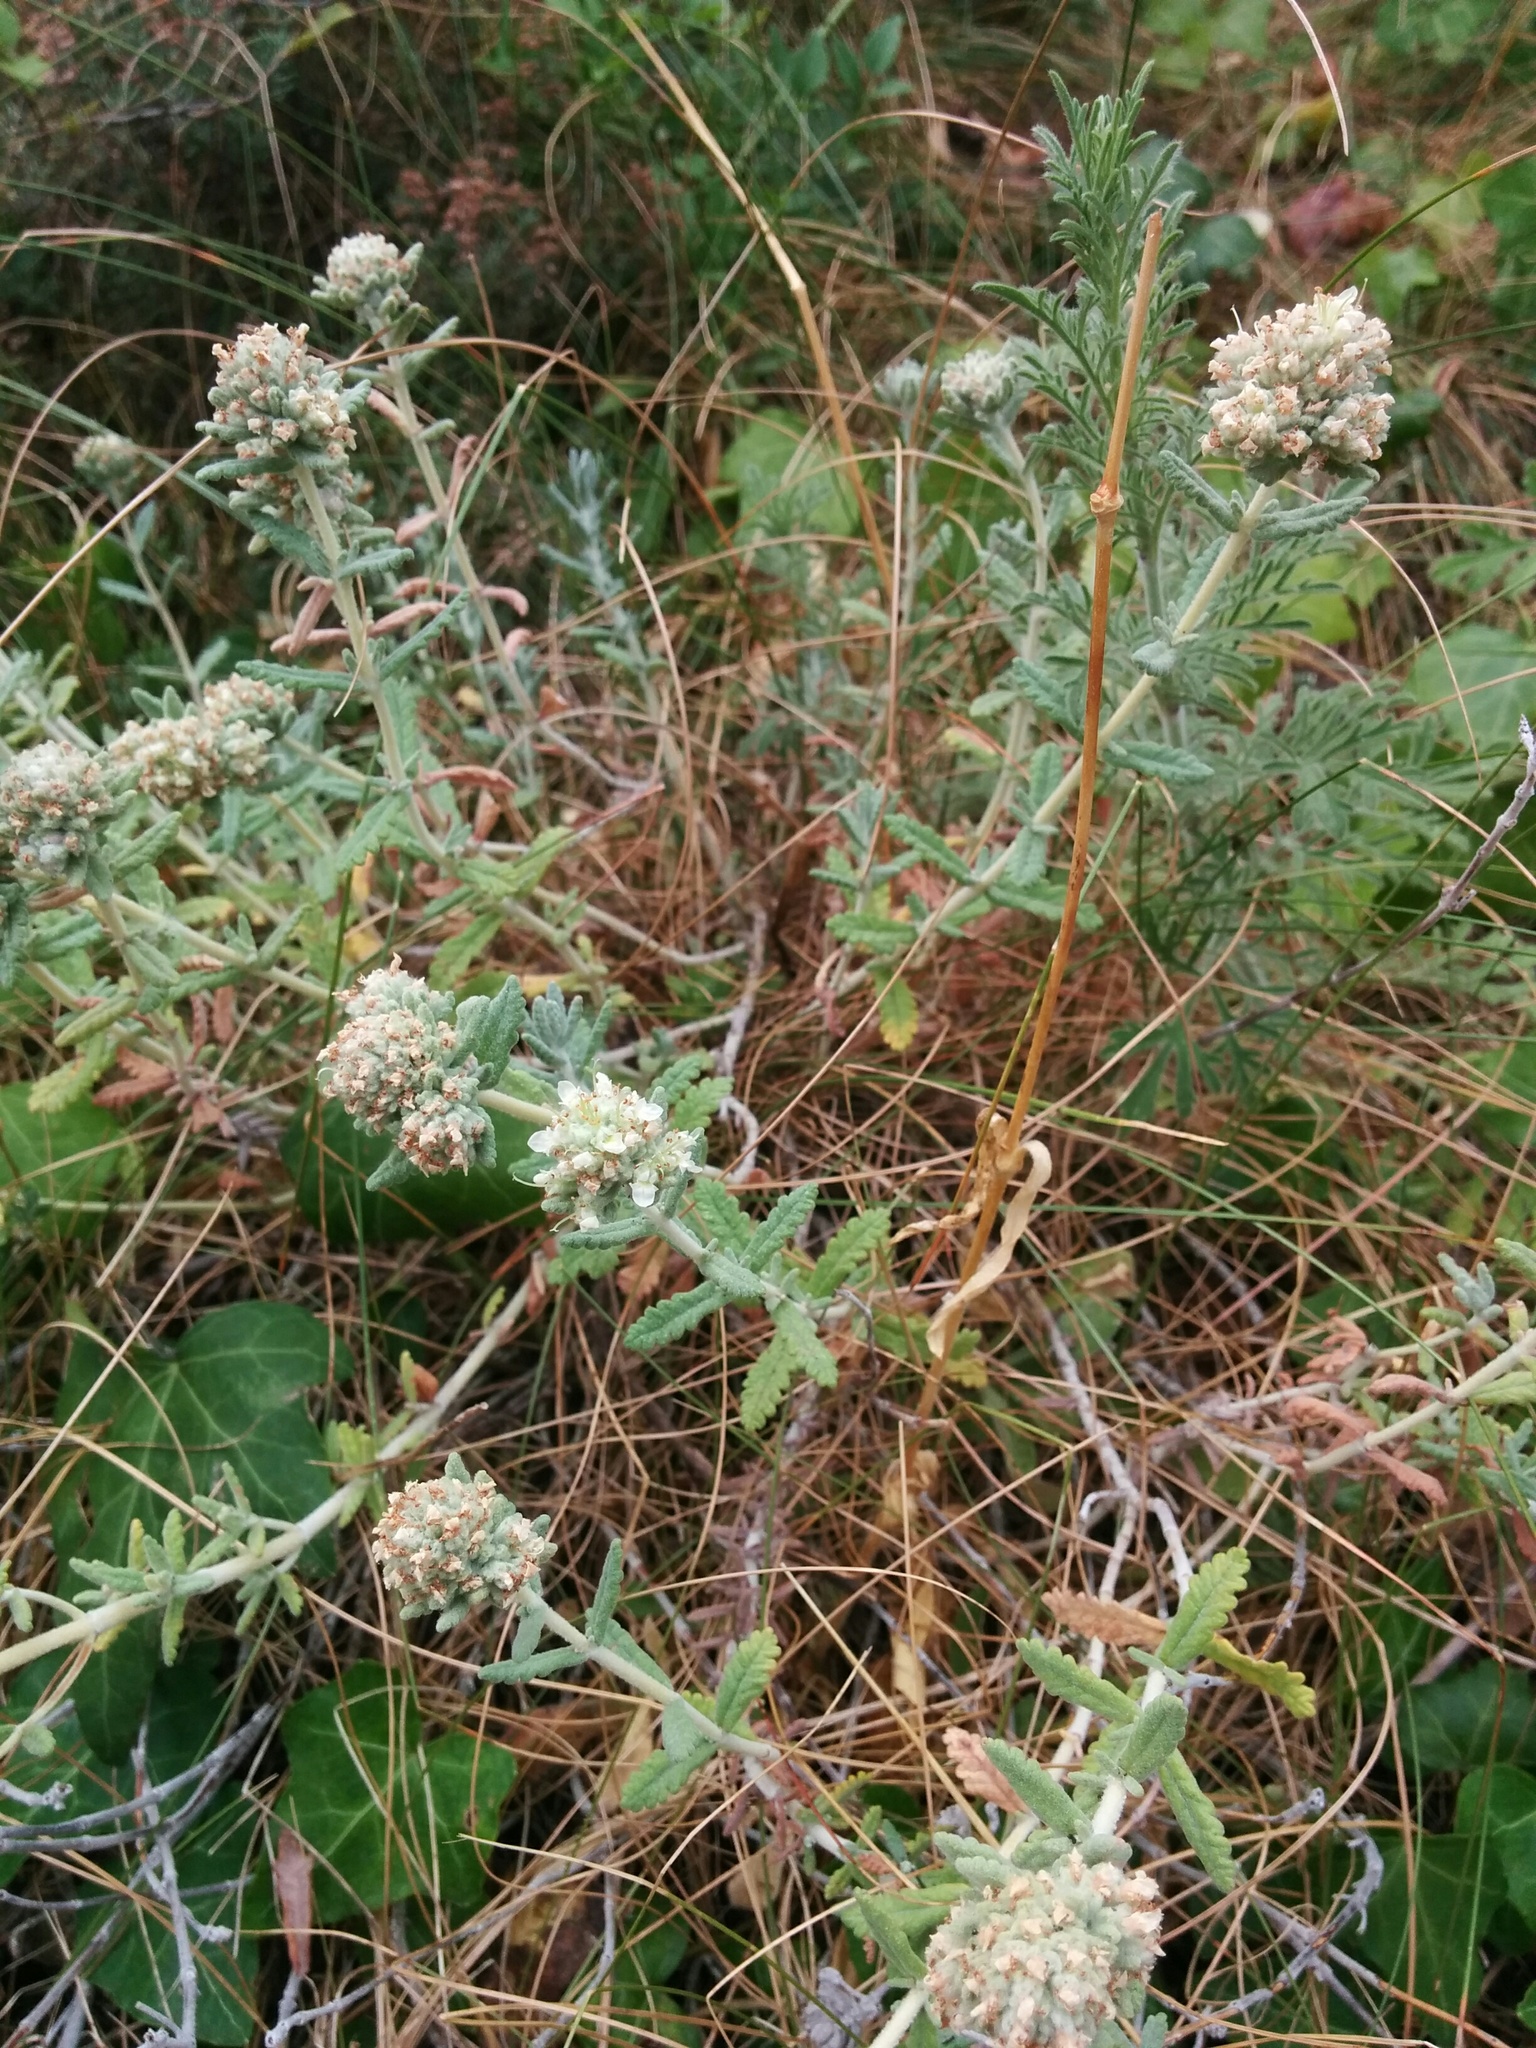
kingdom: Plantae
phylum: Tracheophyta
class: Magnoliopsida
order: Lamiales
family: Lamiaceae
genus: Teucrium
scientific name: Teucrium polium
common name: Poley
